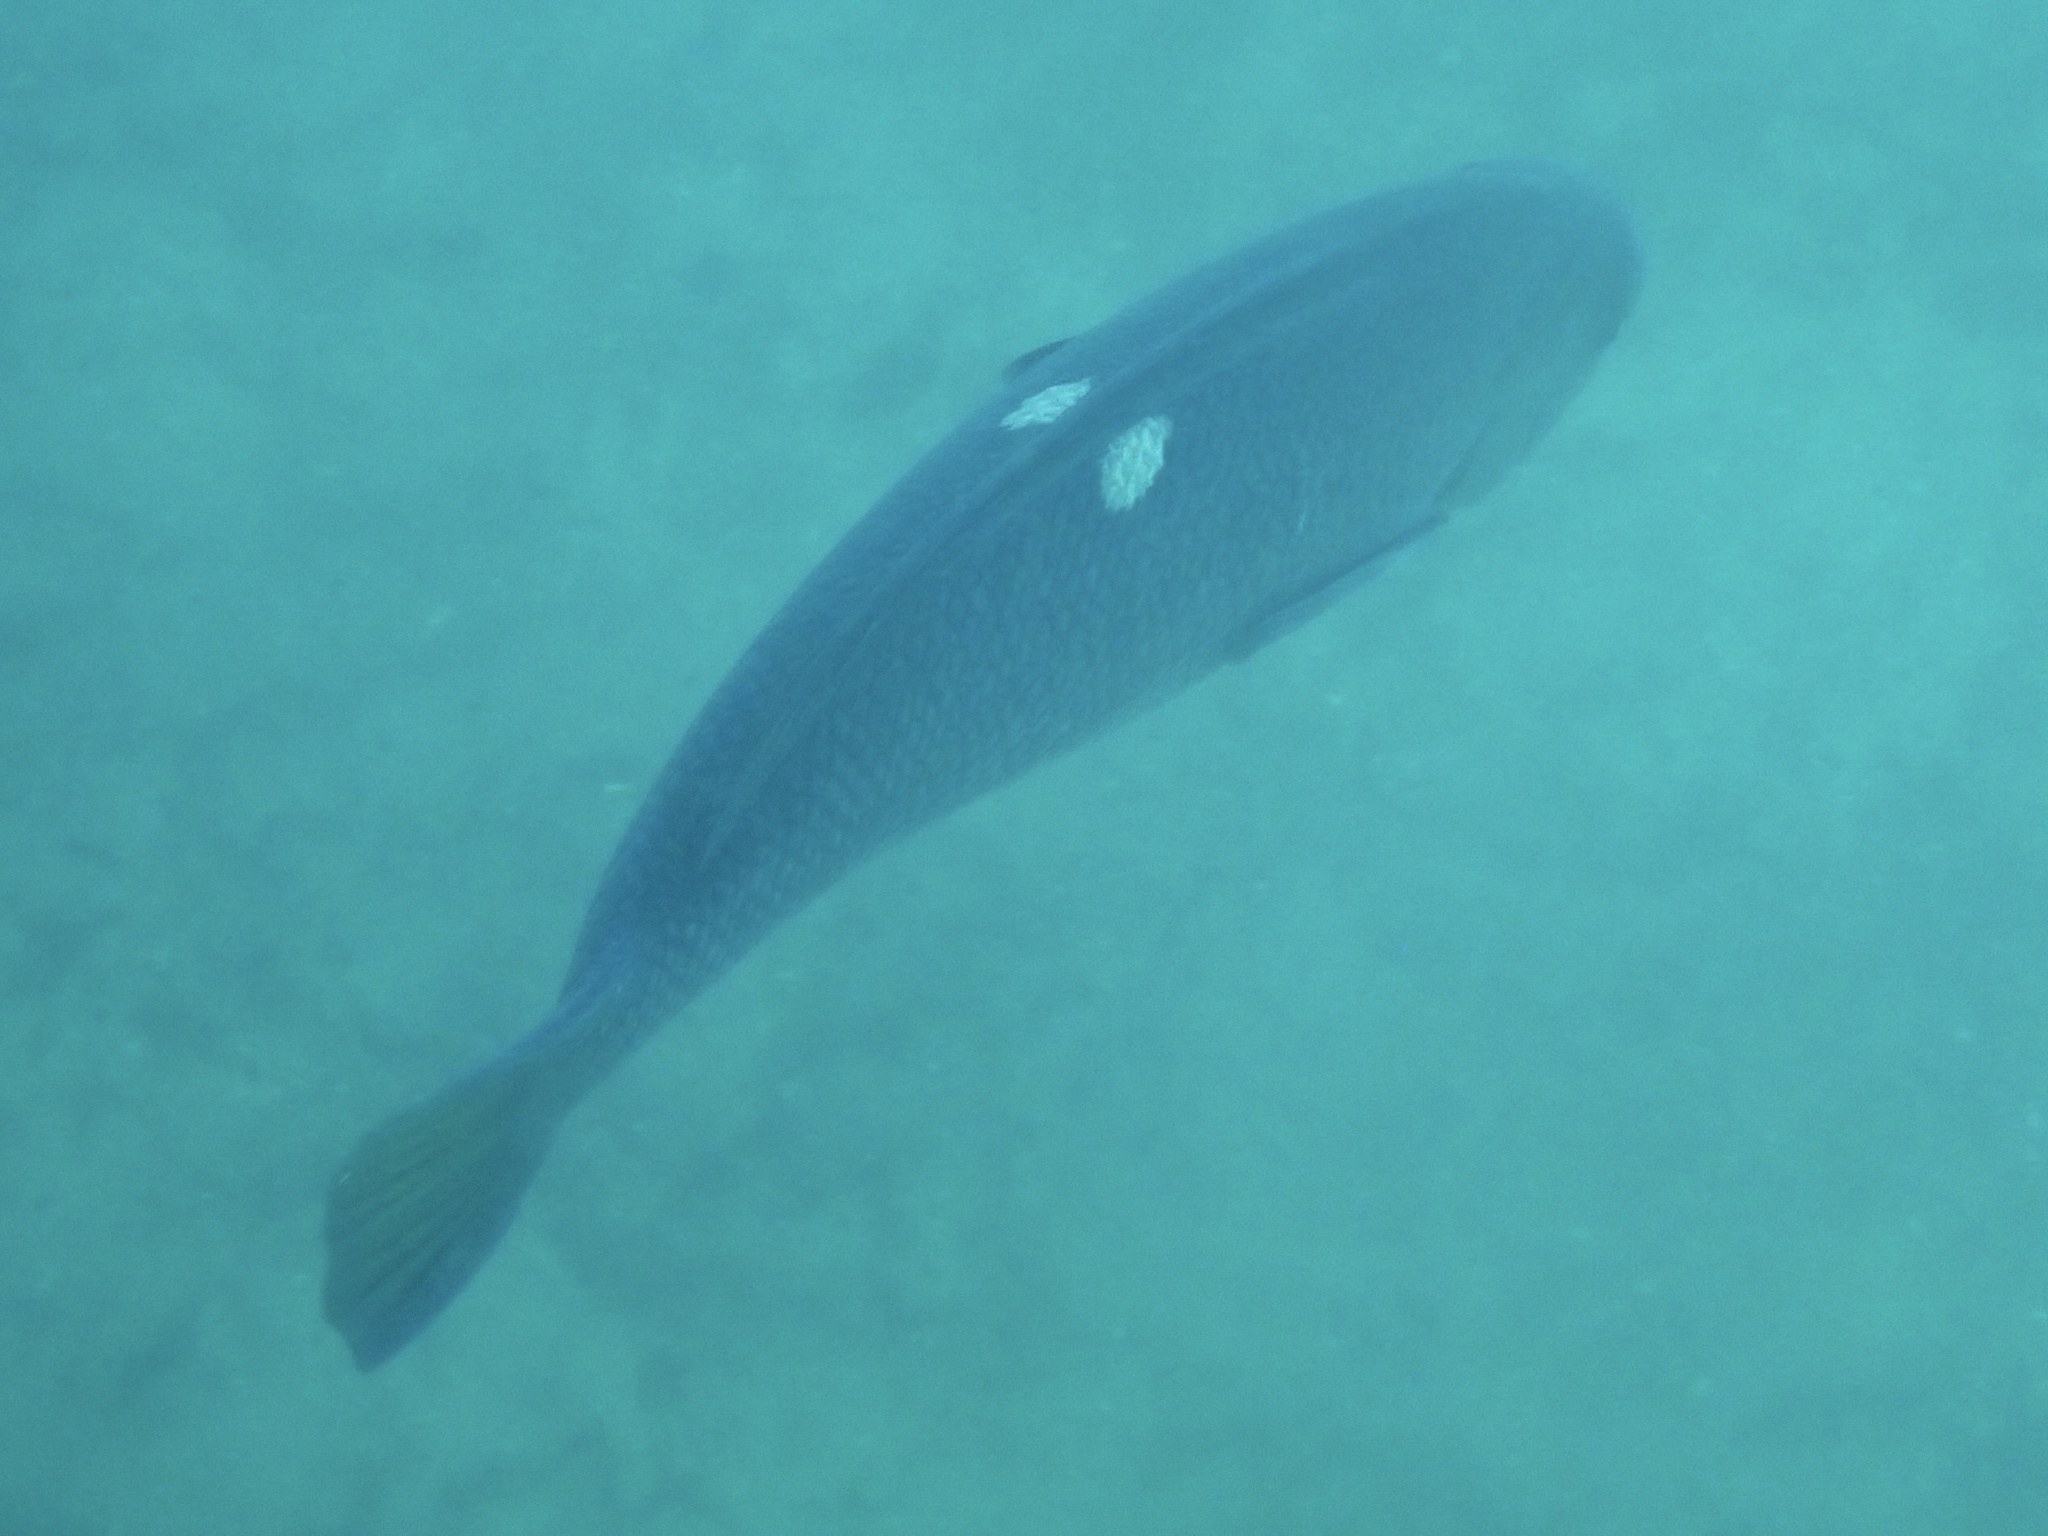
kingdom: Animalia
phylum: Chordata
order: Perciformes
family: Kyphosidae
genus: Girella
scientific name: Girella nigricans
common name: Opaleye
